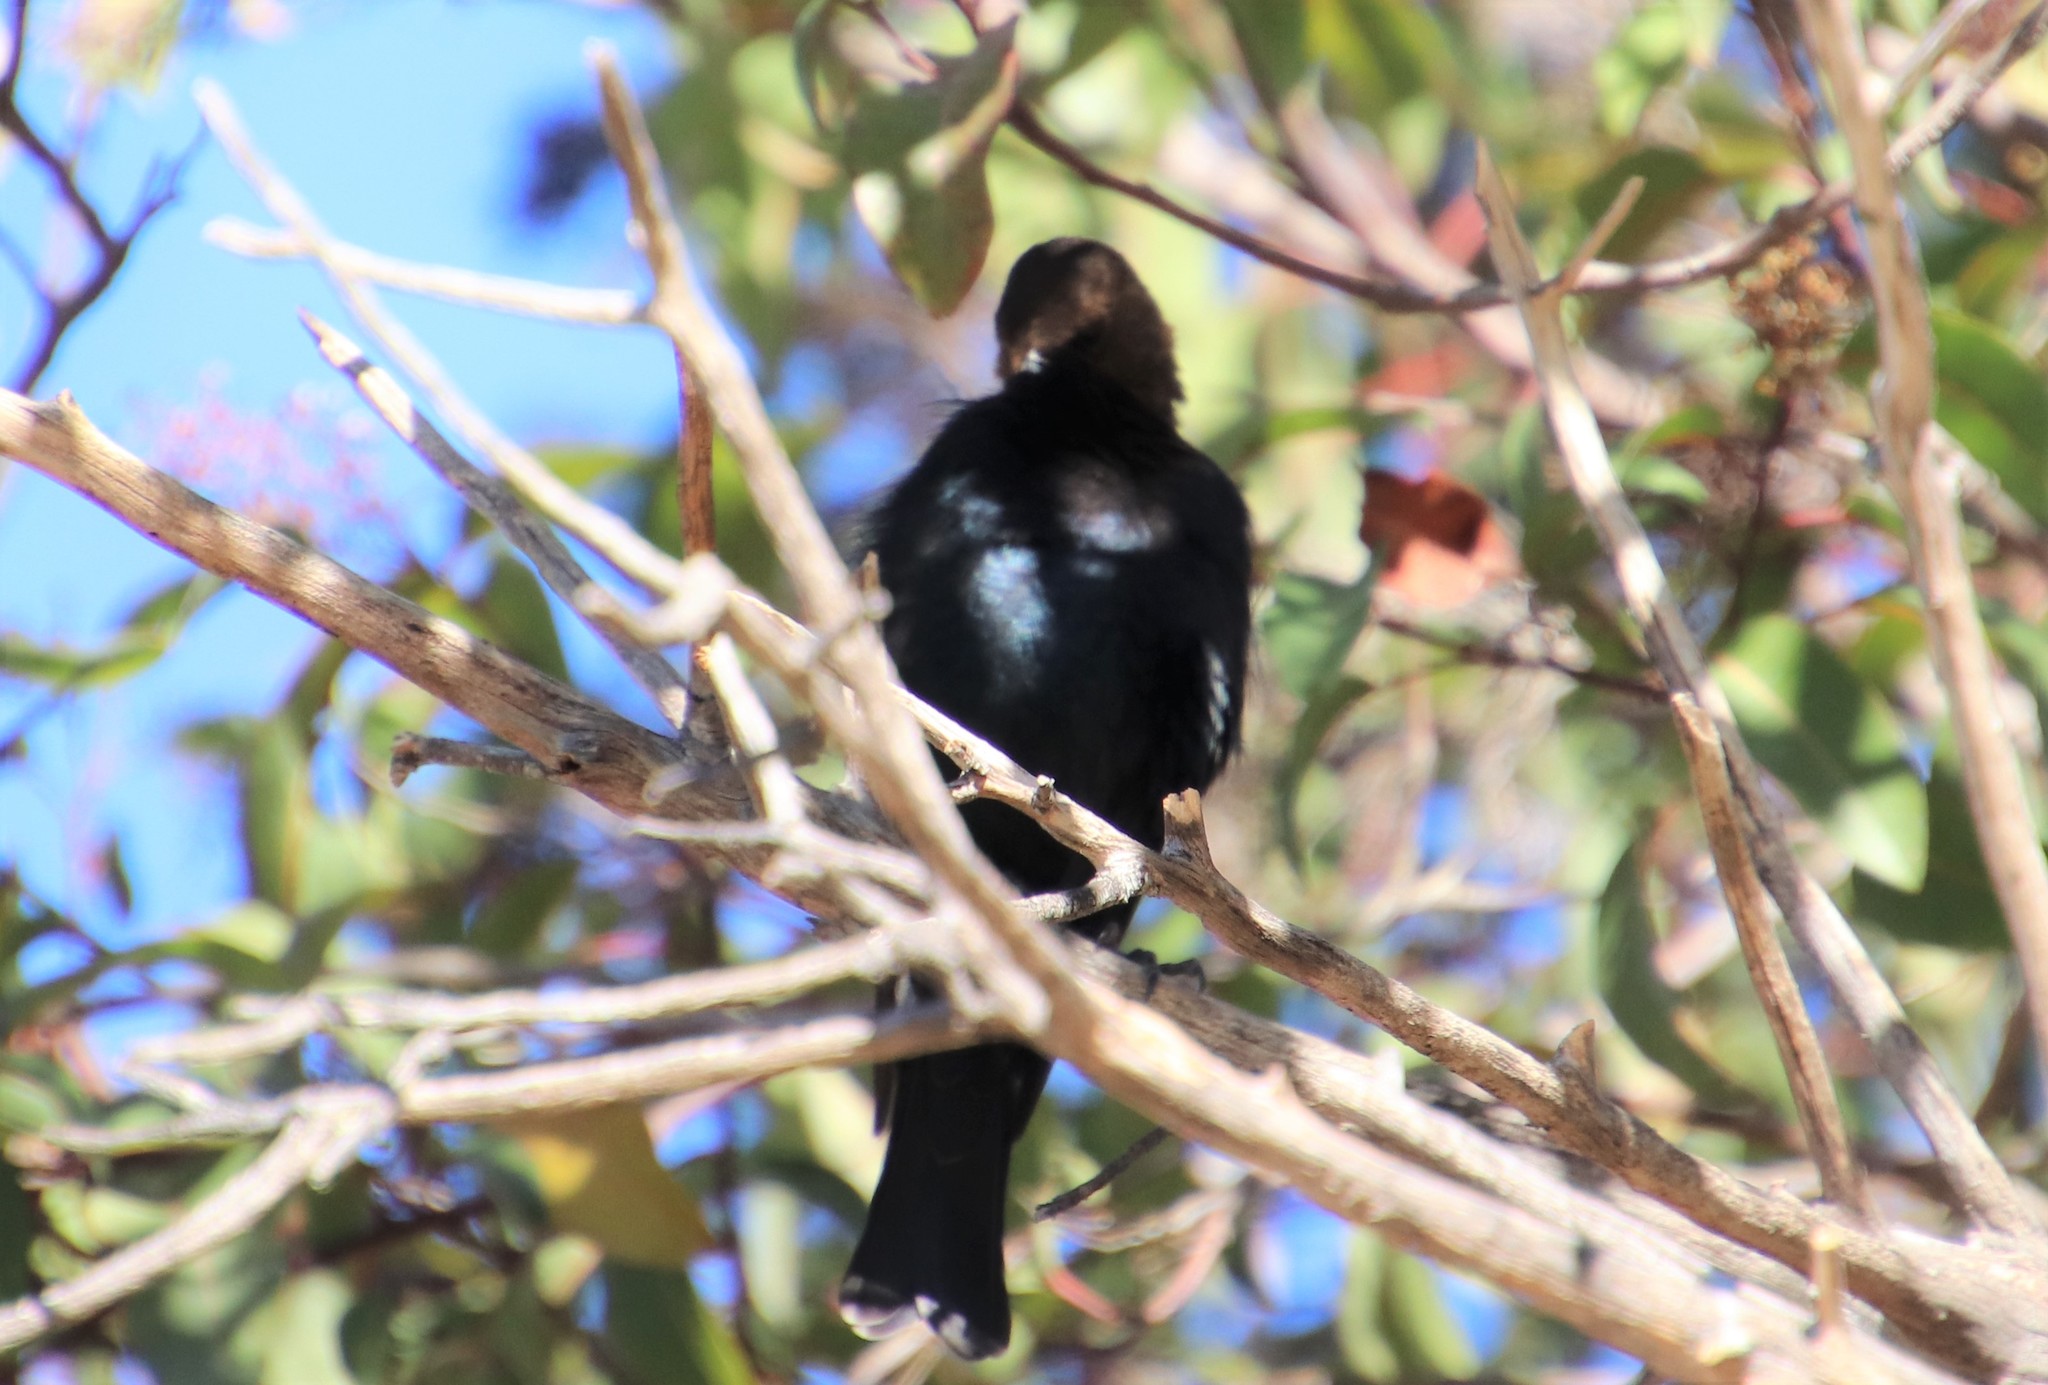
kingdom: Animalia
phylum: Chordata
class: Aves
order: Passeriformes
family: Icteridae
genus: Molothrus
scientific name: Molothrus ater
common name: Brown-headed cowbird
